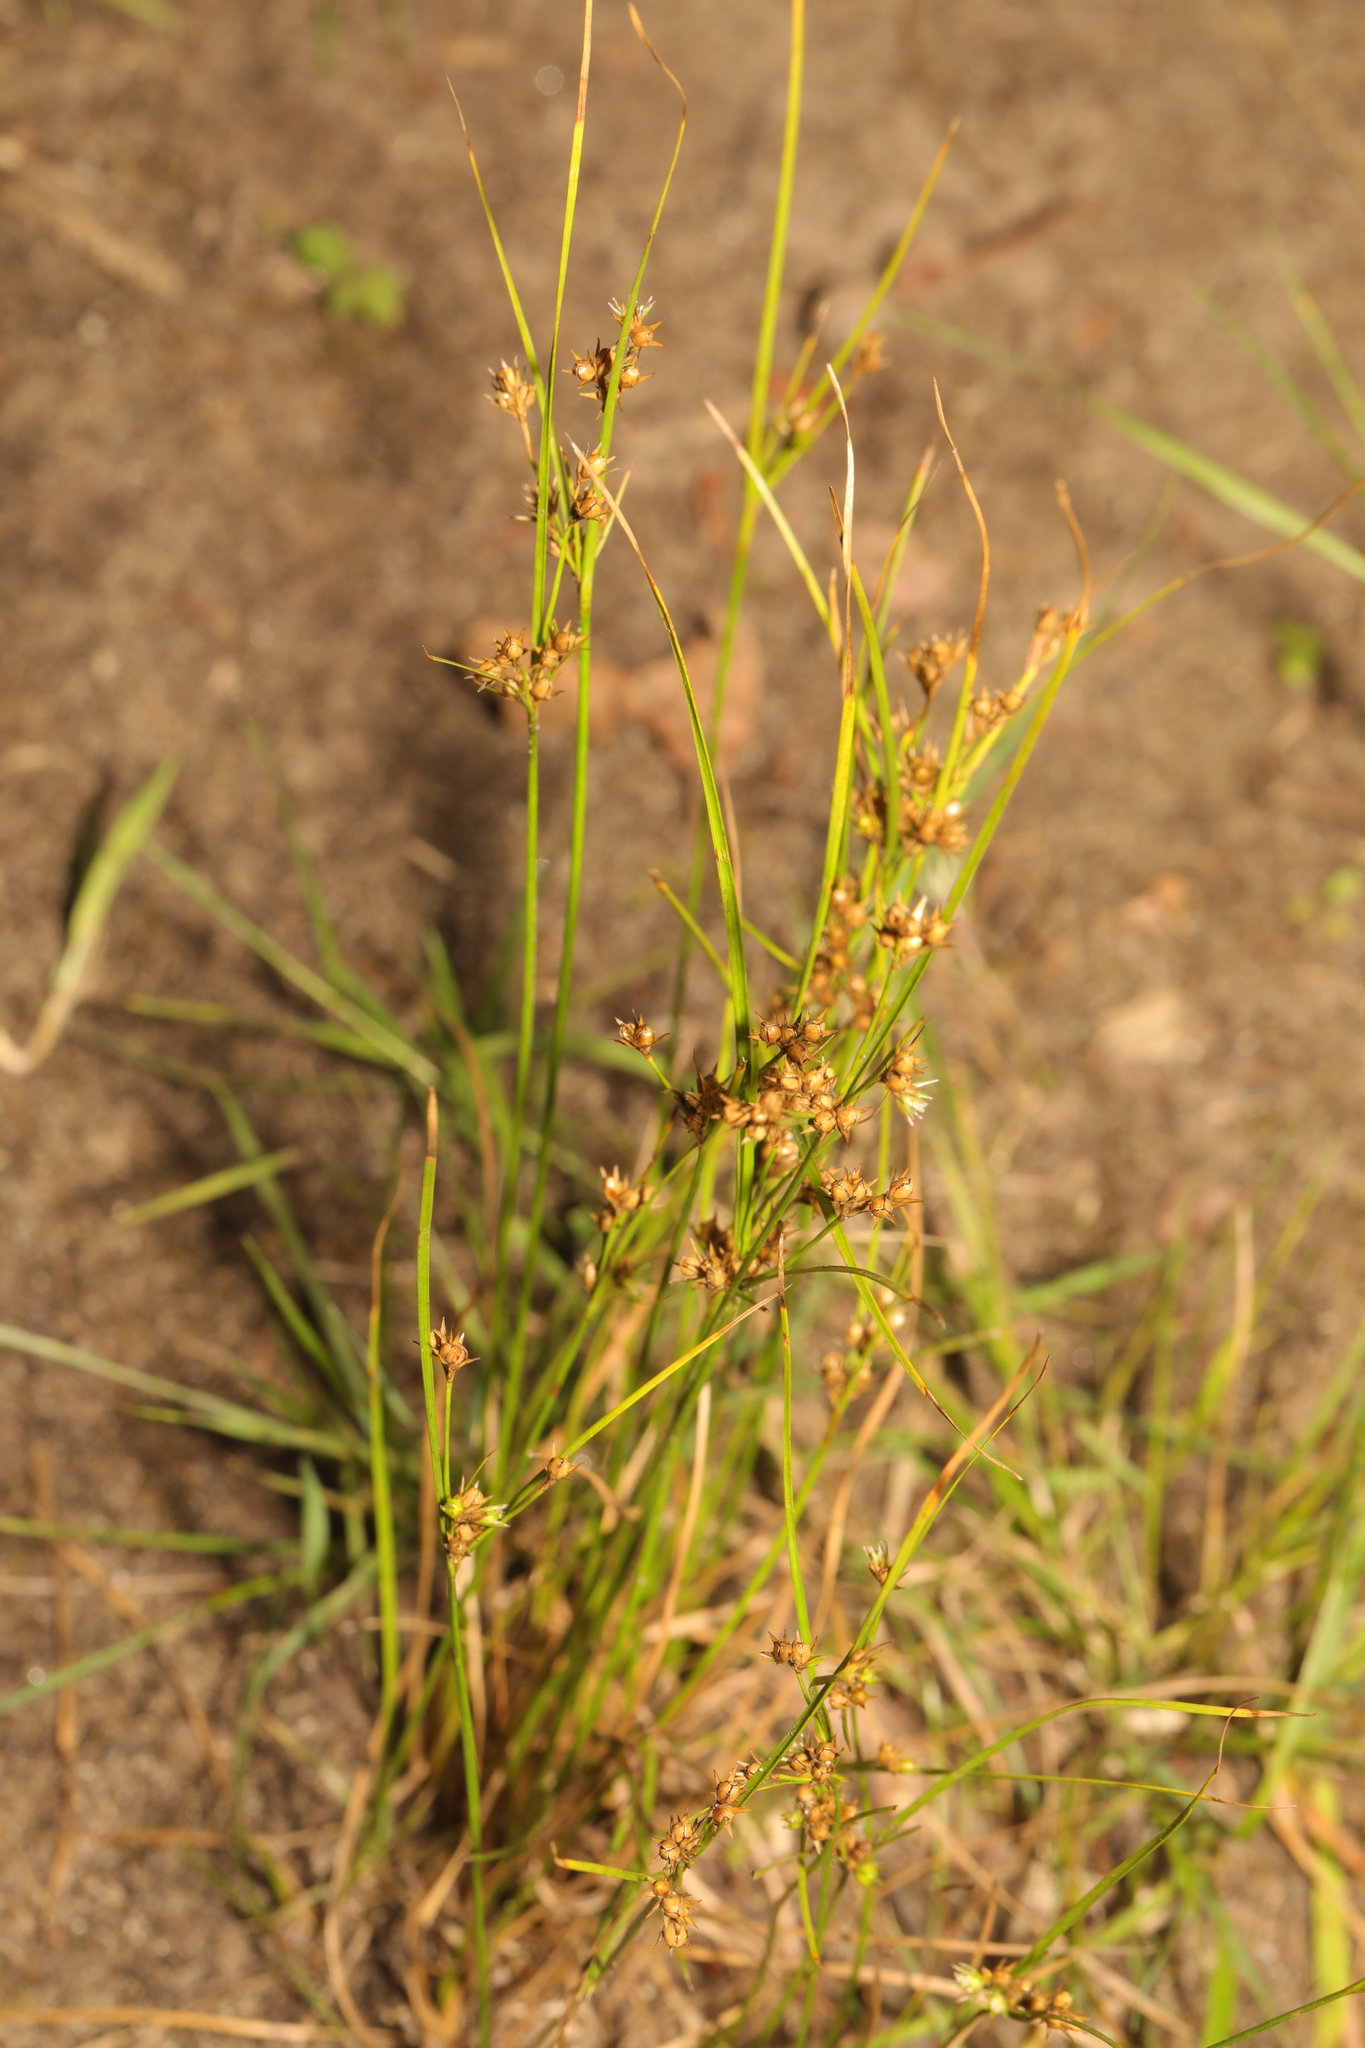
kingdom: Plantae
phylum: Tracheophyta
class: Liliopsida
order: Poales
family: Juncaceae
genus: Juncus
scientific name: Juncus tenuis
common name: Slender rush
